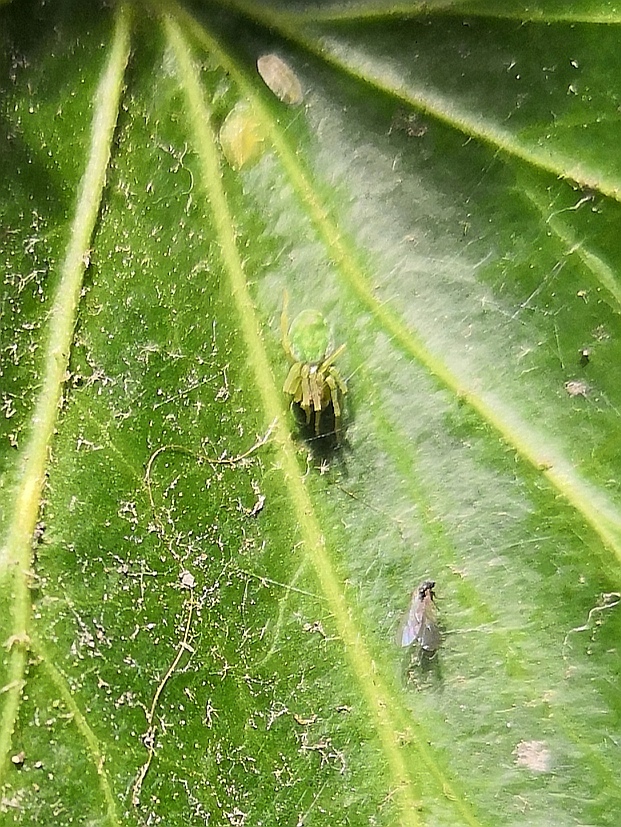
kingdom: Animalia
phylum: Arthropoda
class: Arachnida
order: Araneae
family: Dictynidae
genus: Nigma
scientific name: Nigma walckenaeri
